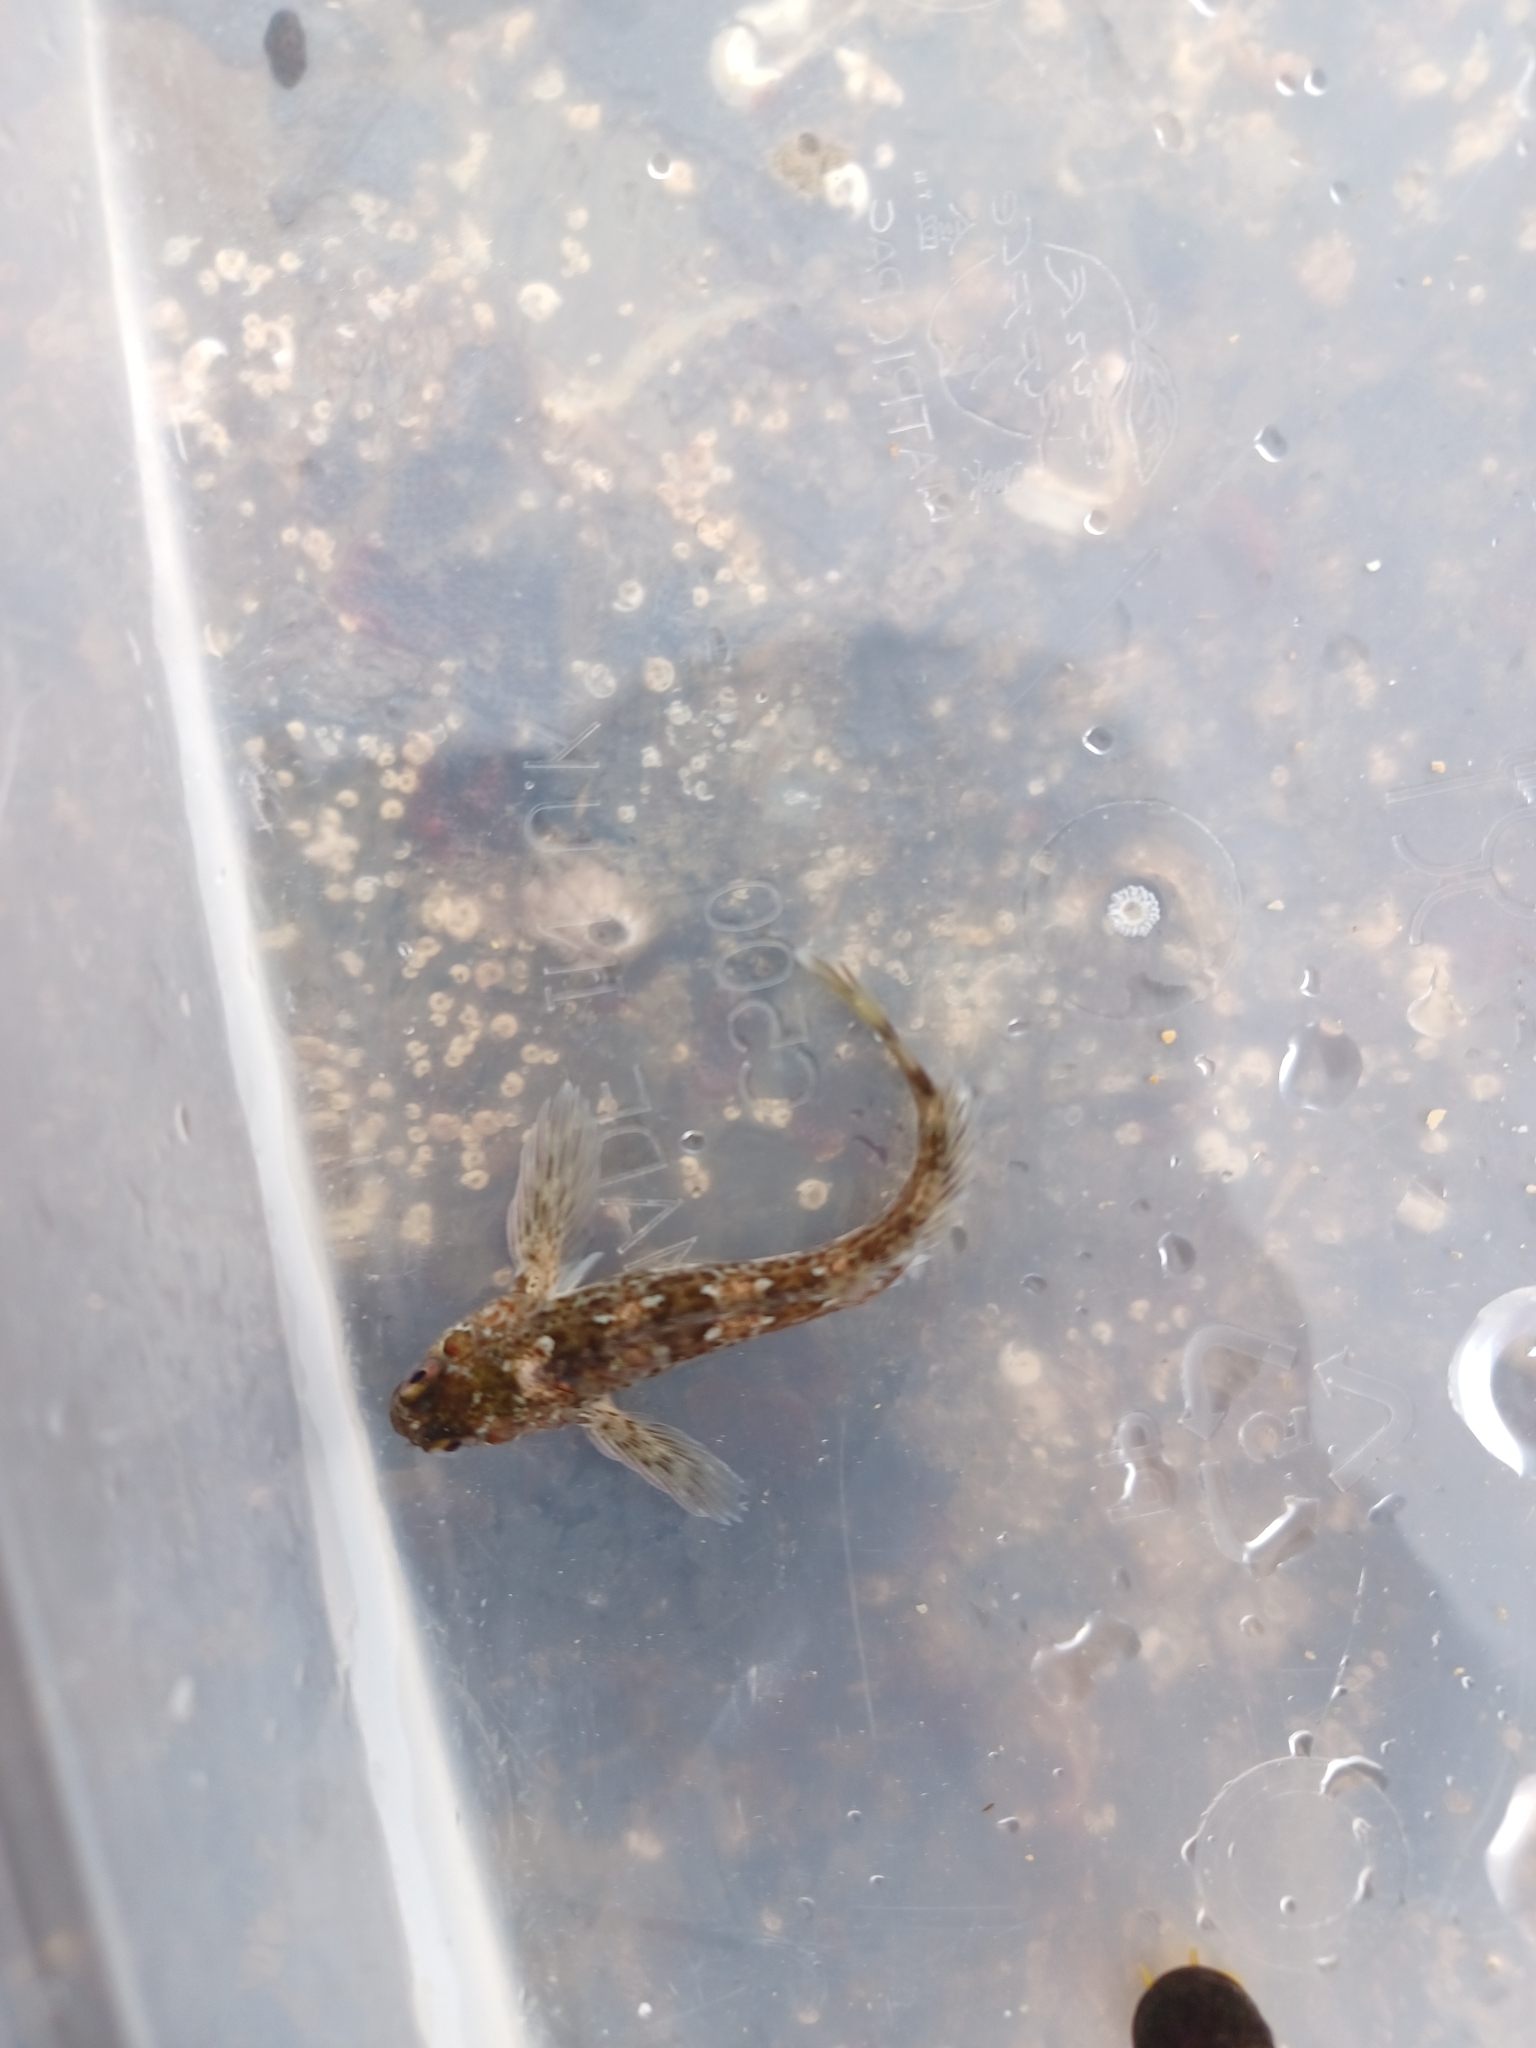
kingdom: Animalia
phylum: Chordata
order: Perciformes
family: Blenniidae
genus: Lipophrys
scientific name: Lipophrys pholis
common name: Shanny
